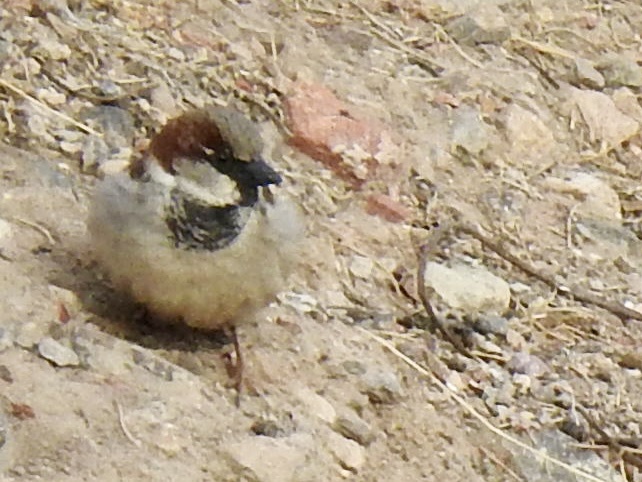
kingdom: Animalia
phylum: Chordata
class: Aves
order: Passeriformes
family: Passeridae
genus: Passer
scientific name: Passer domesticus
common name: House sparrow
